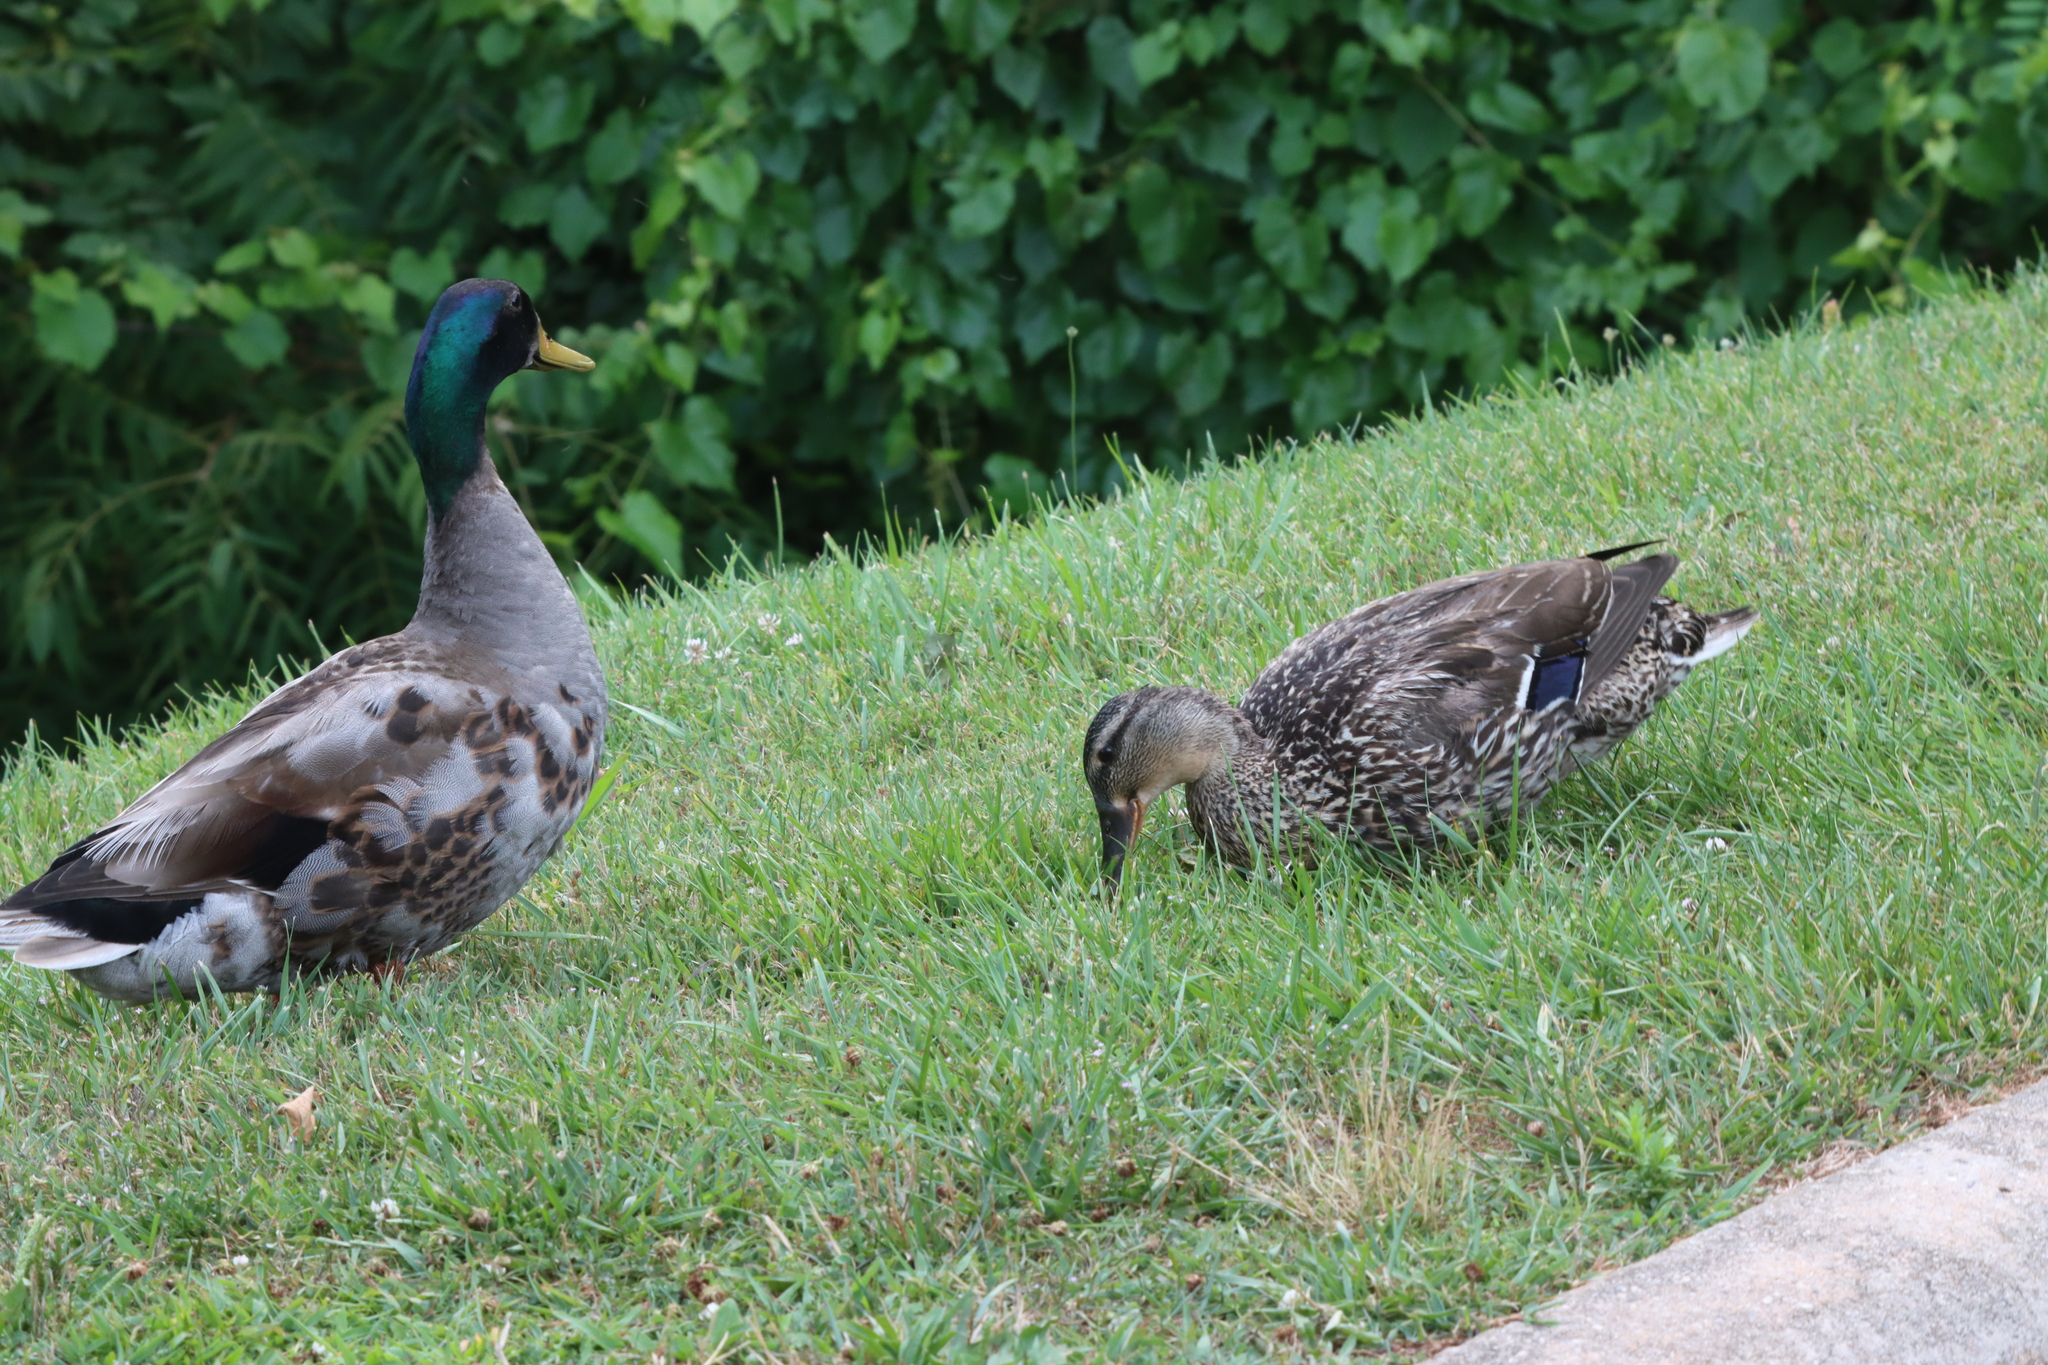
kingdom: Animalia
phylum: Chordata
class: Aves
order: Anseriformes
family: Anatidae
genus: Anas
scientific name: Anas platyrhynchos
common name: Mallard
